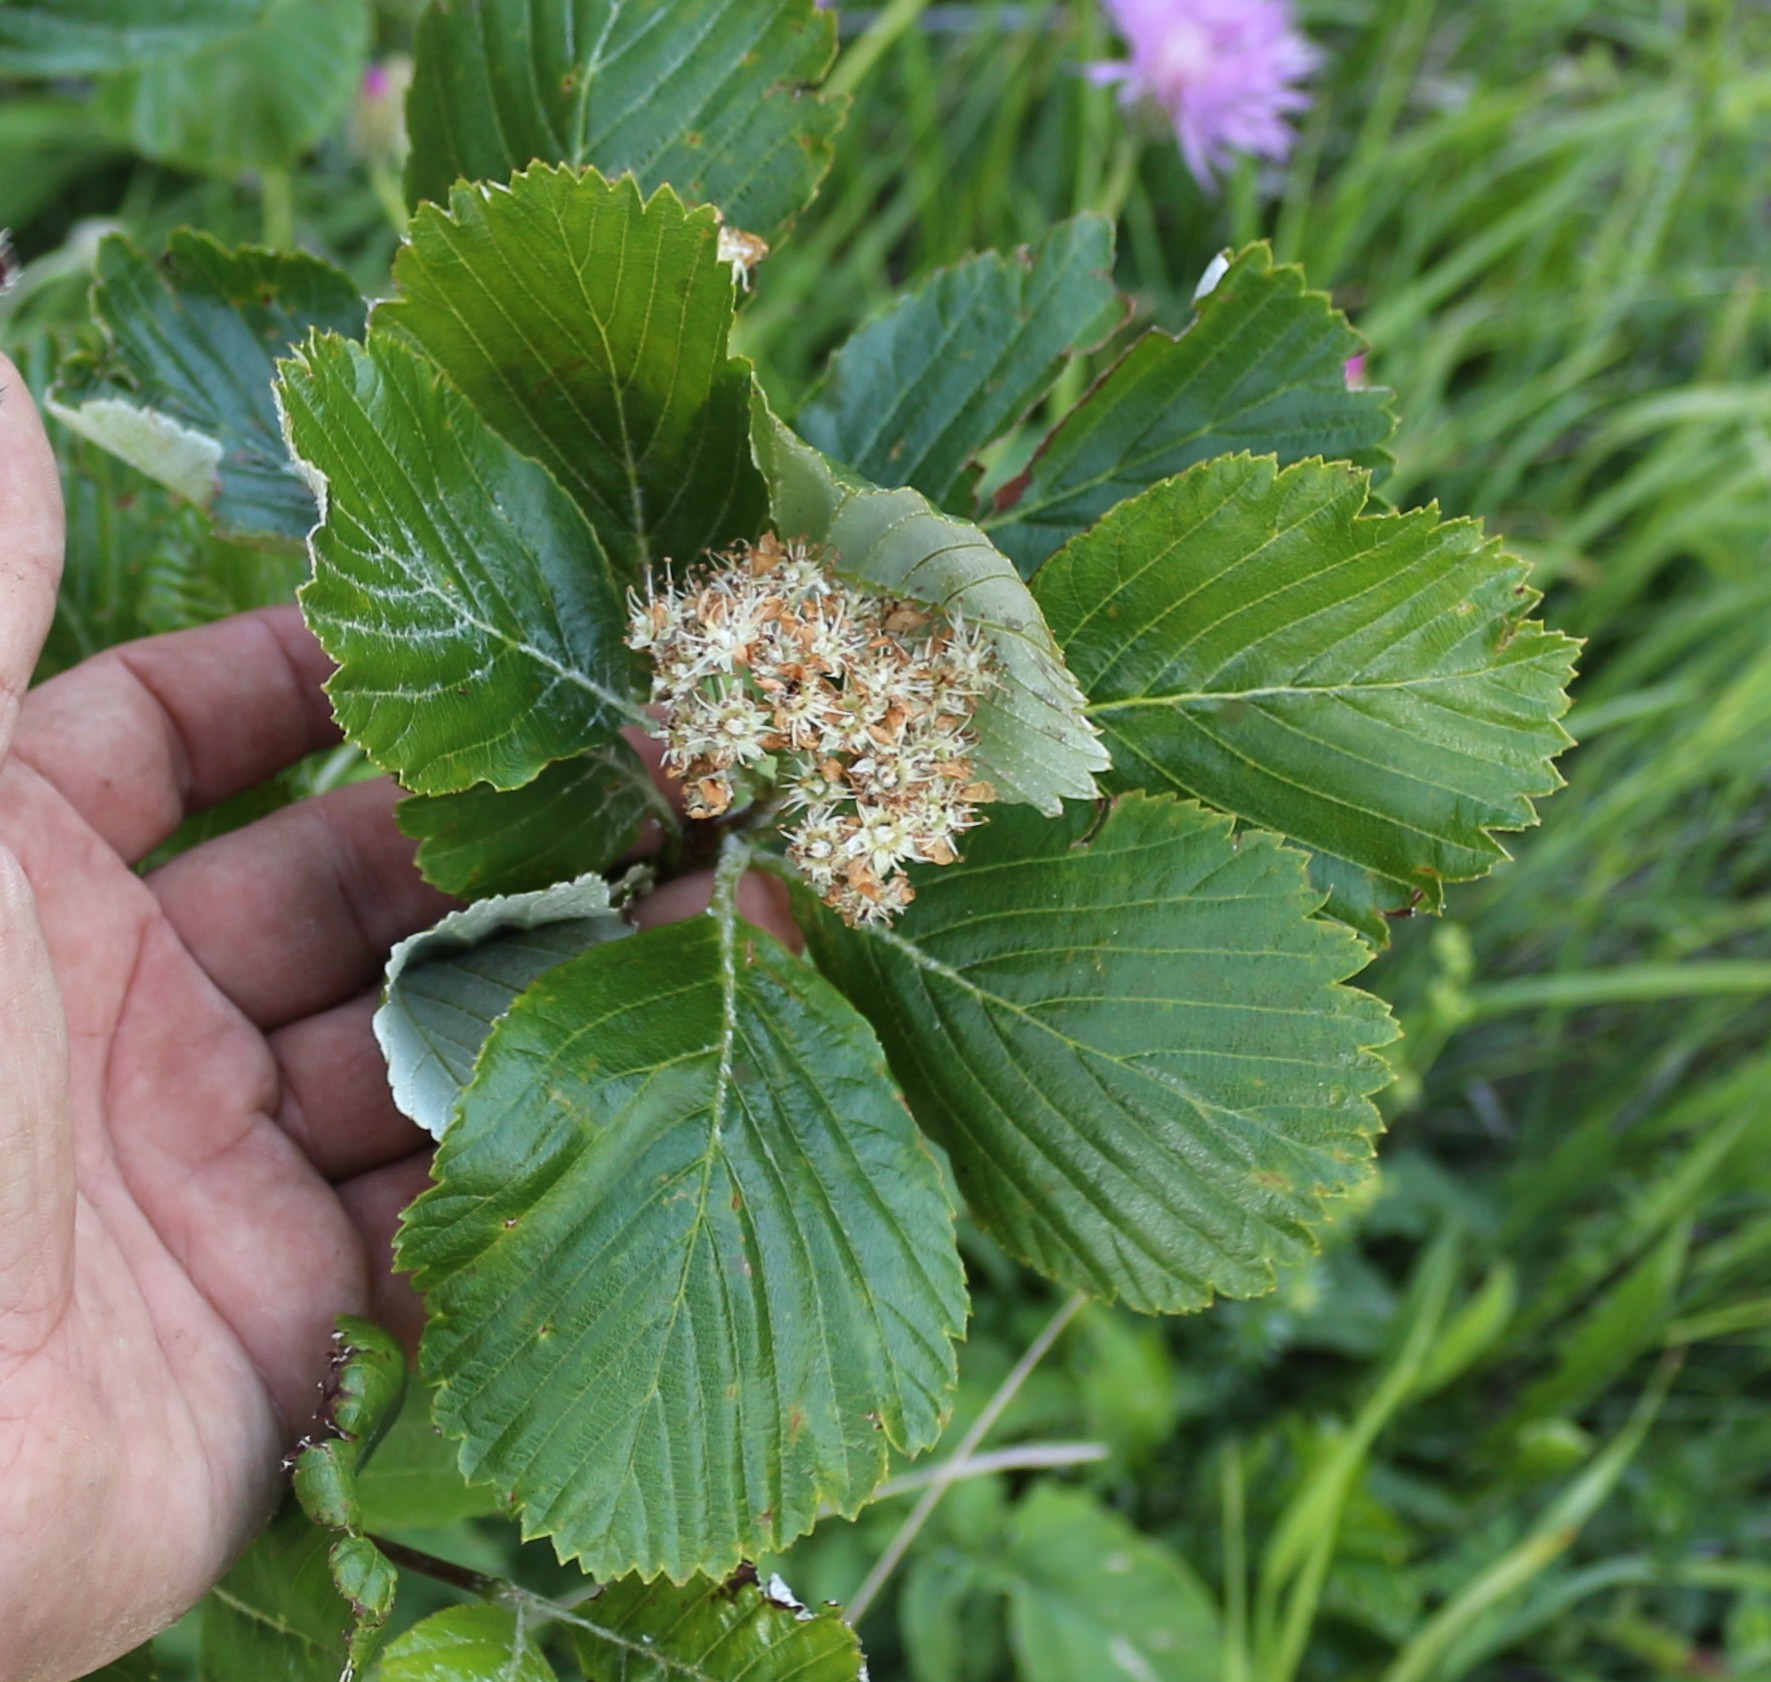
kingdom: Plantae
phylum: Tracheophyta
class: Magnoliopsida
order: Rosales
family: Rosaceae
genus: Aria
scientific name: Aria umbellata
